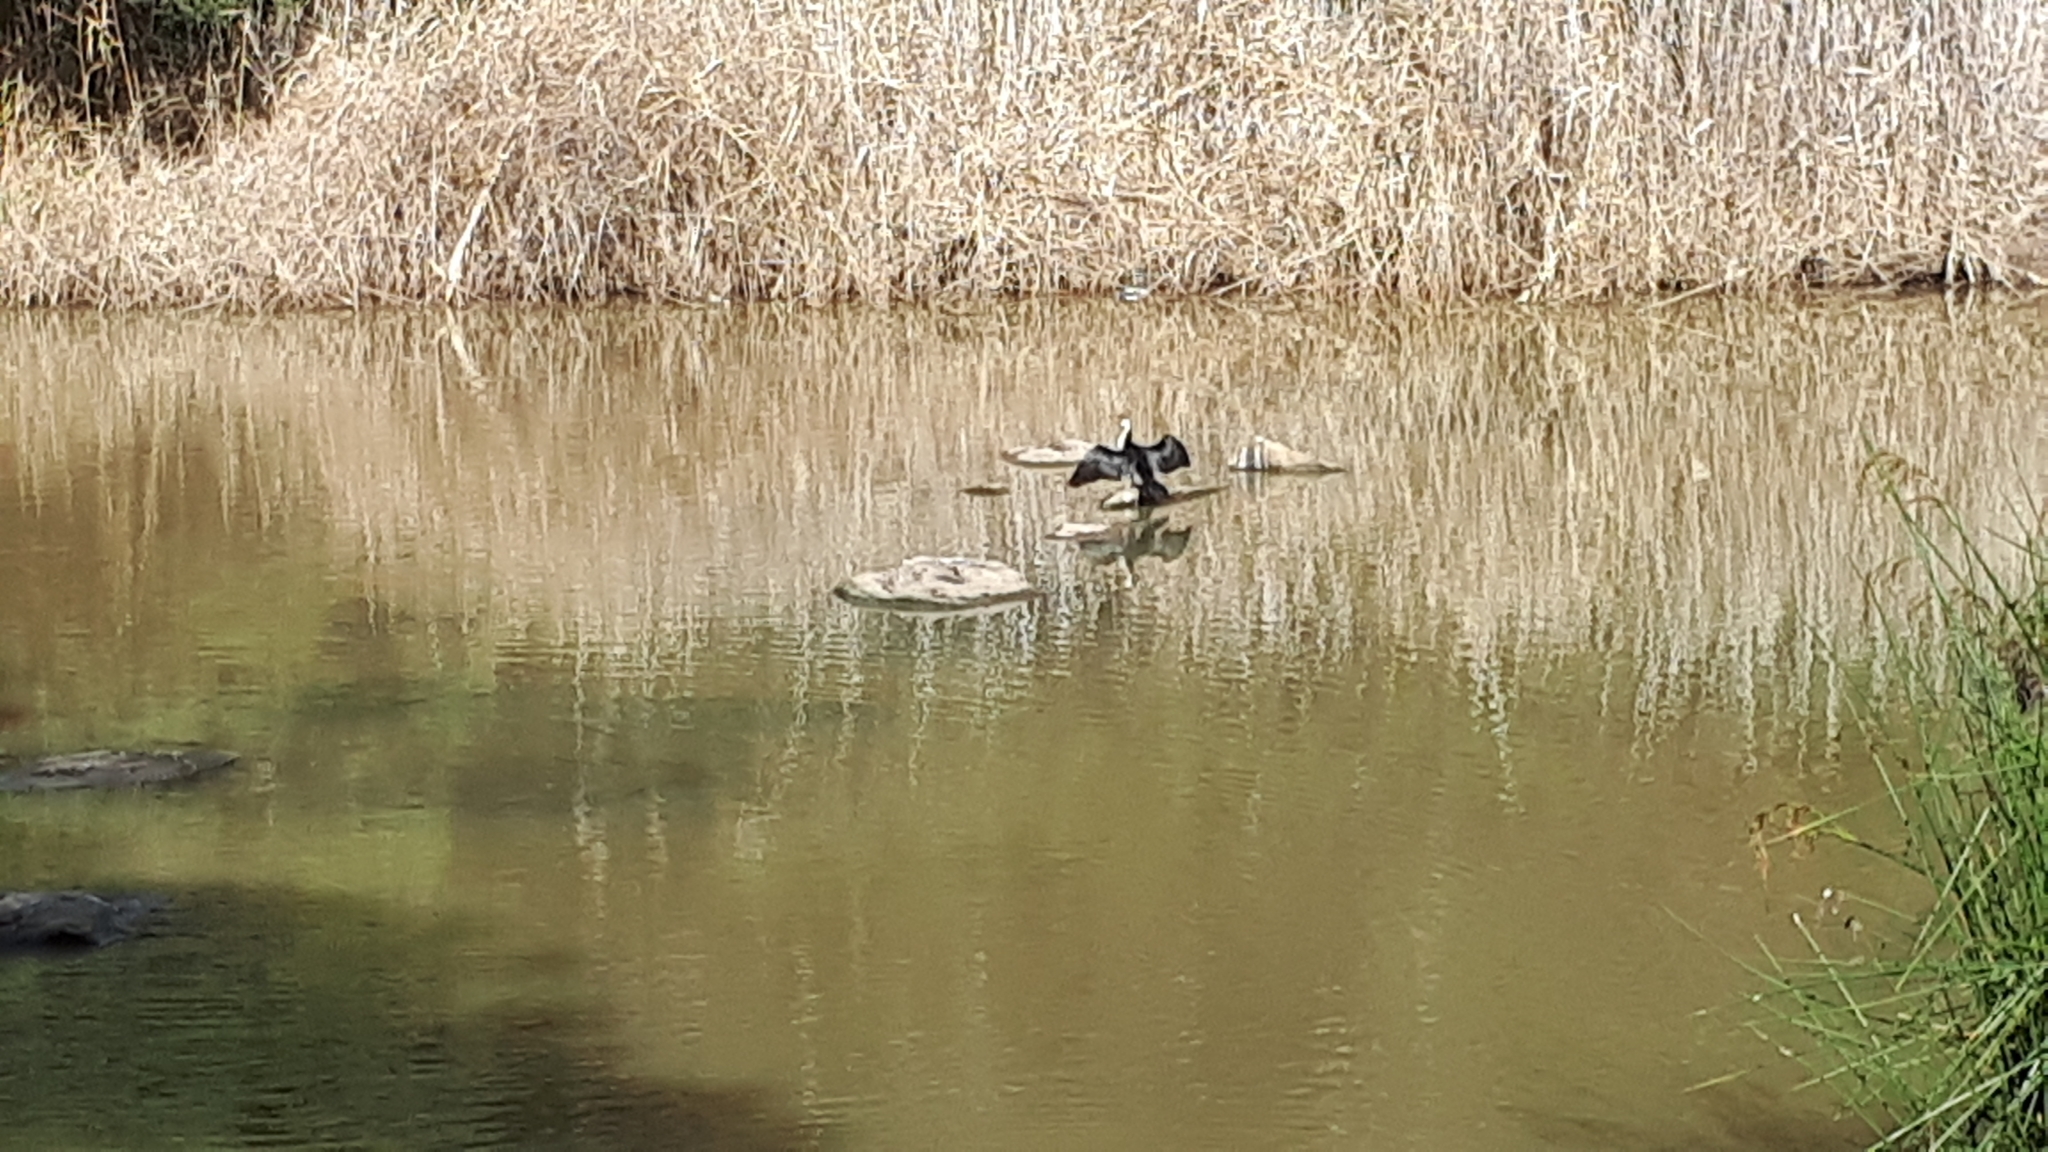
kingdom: Animalia
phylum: Chordata
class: Aves
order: Suliformes
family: Phalacrocoracidae
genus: Microcarbo
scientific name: Microcarbo melanoleucos
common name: Little pied cormorant
